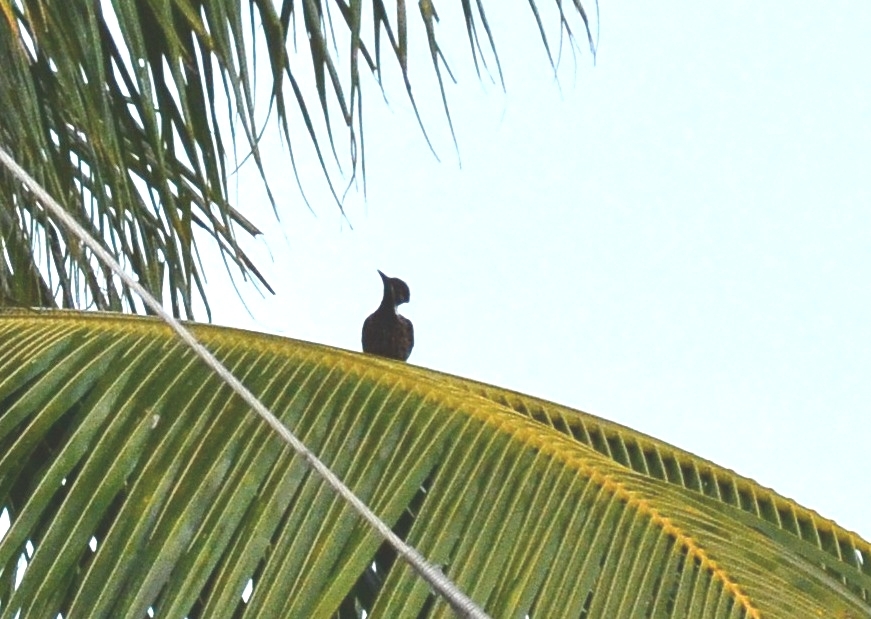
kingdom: Animalia
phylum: Chordata
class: Aves
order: Piciformes
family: Picidae
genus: Dinopium
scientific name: Dinopium benghalense
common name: Black-rumped flameback
